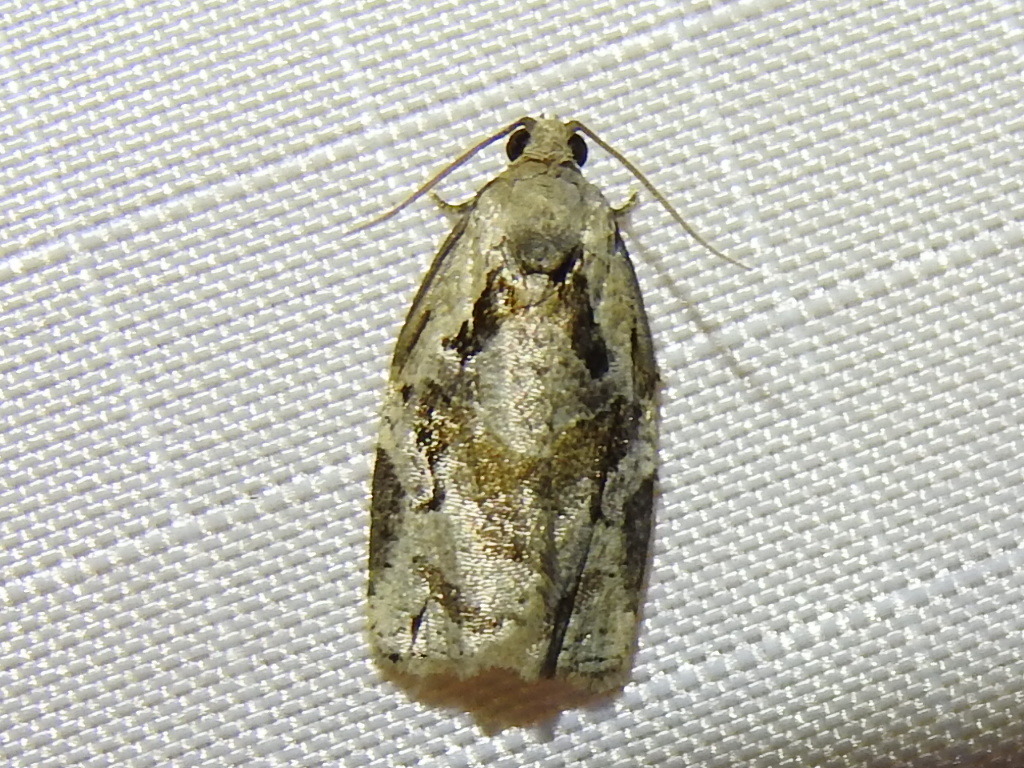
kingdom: Animalia
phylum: Arthropoda
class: Insecta
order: Lepidoptera
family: Tortricidae
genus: Archips
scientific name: Archips grisea
